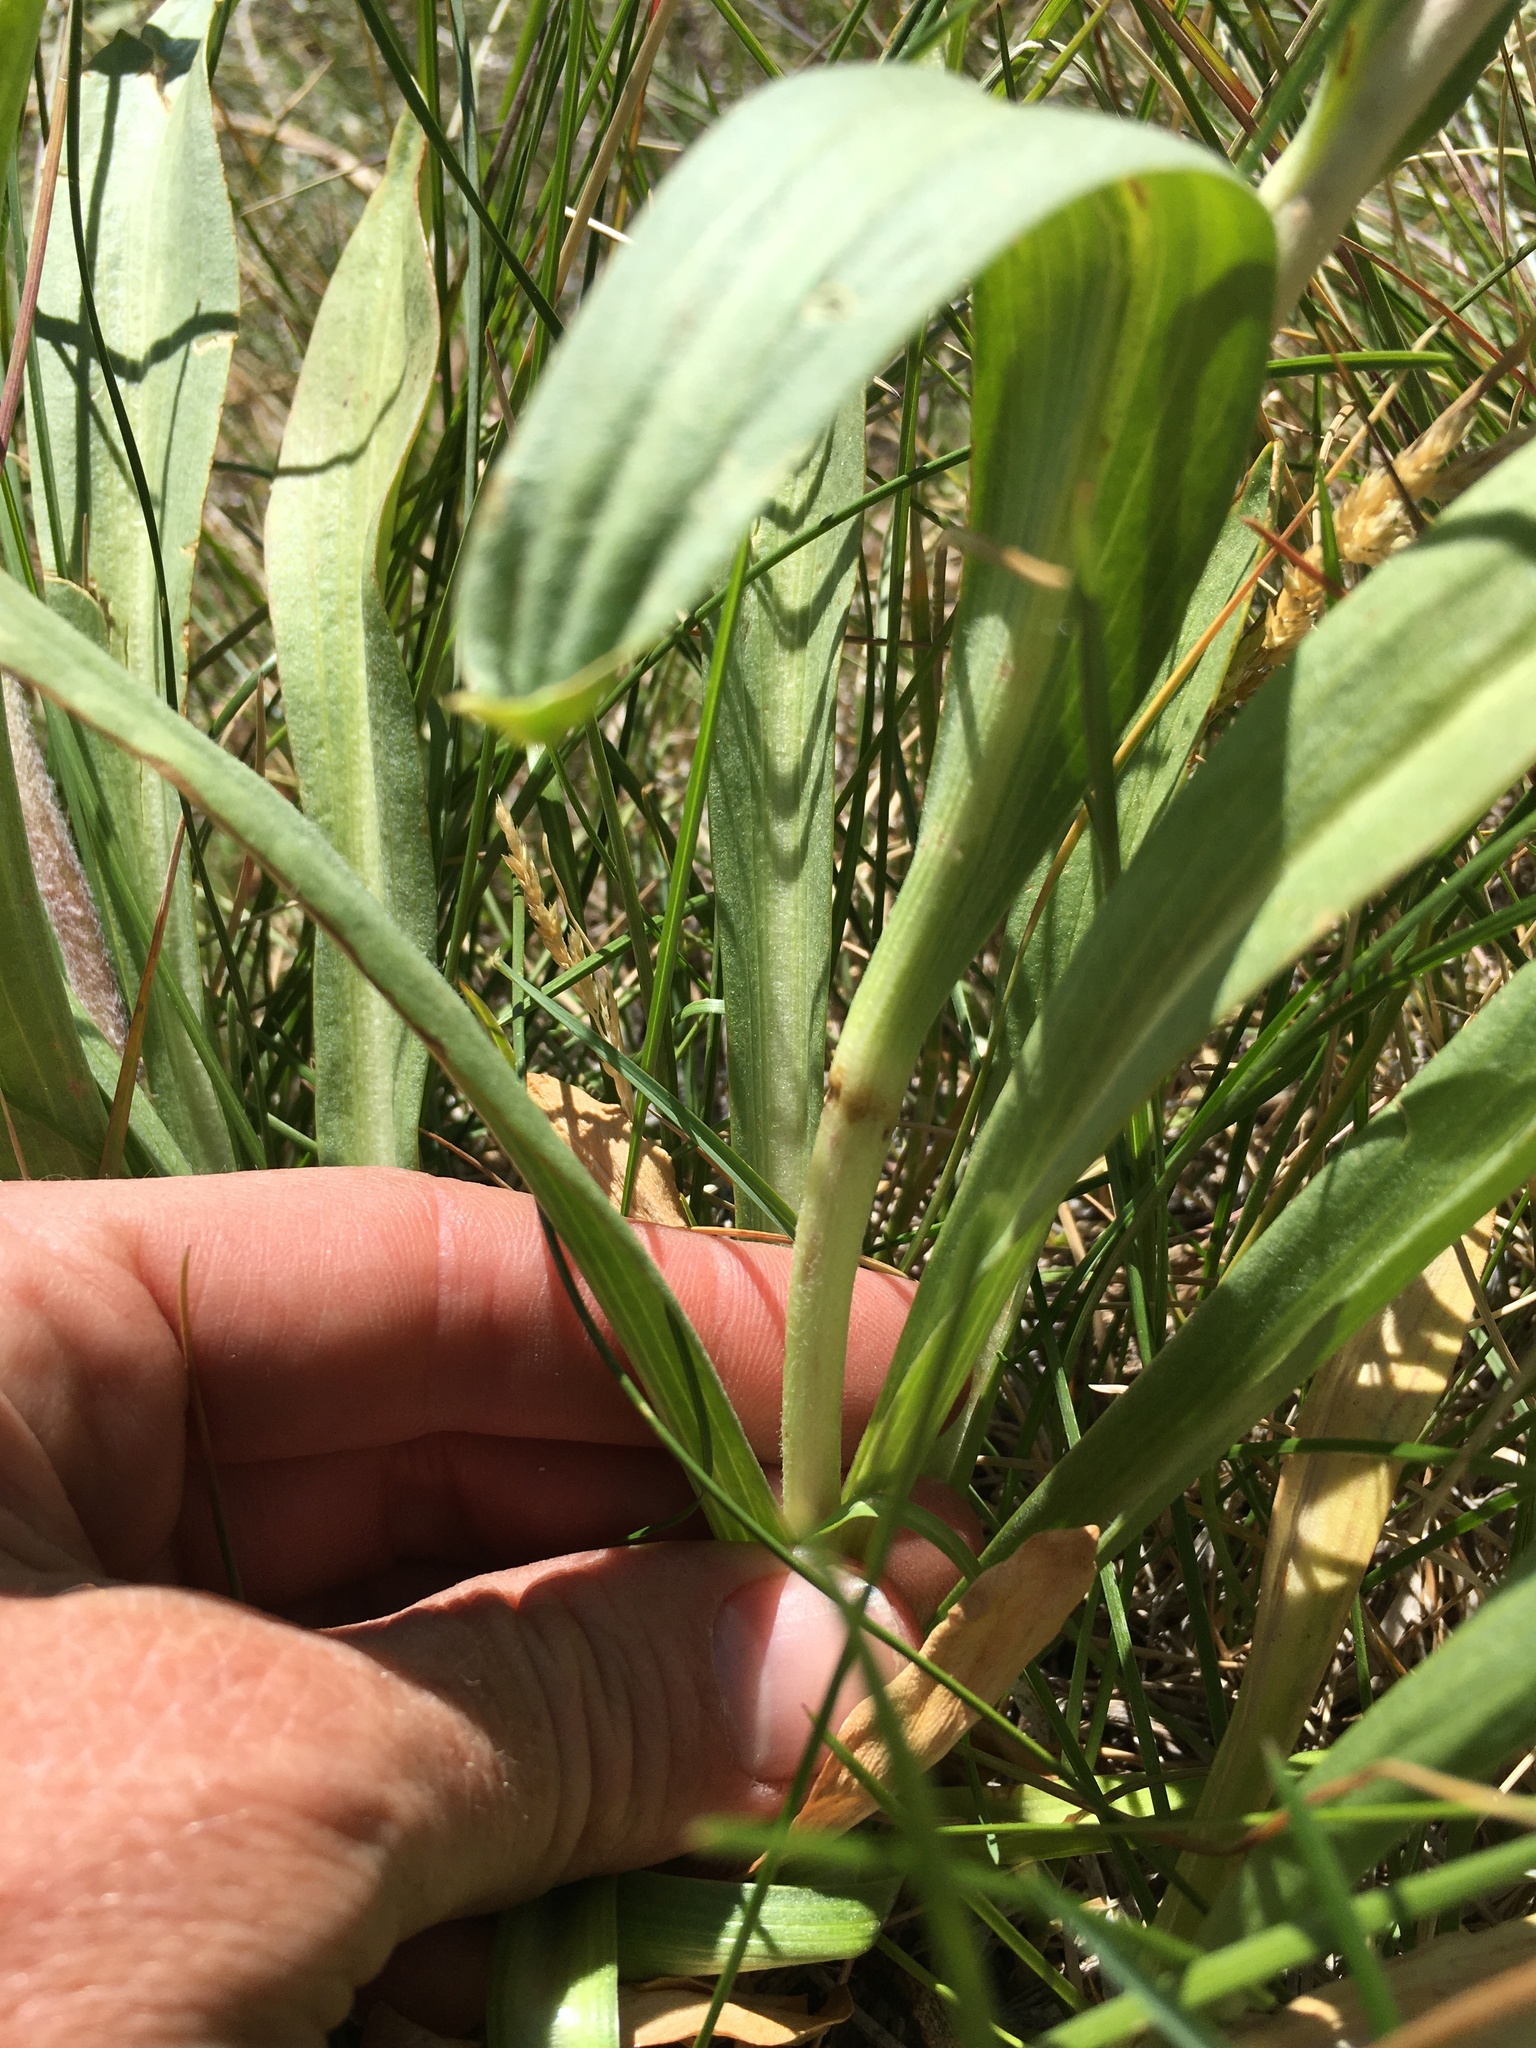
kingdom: Plantae
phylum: Tracheophyta
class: Magnoliopsida
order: Asterales
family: Asteraceae
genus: Hymenoxys
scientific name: Hymenoxys hoopesii
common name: Orange-sneezeweed
